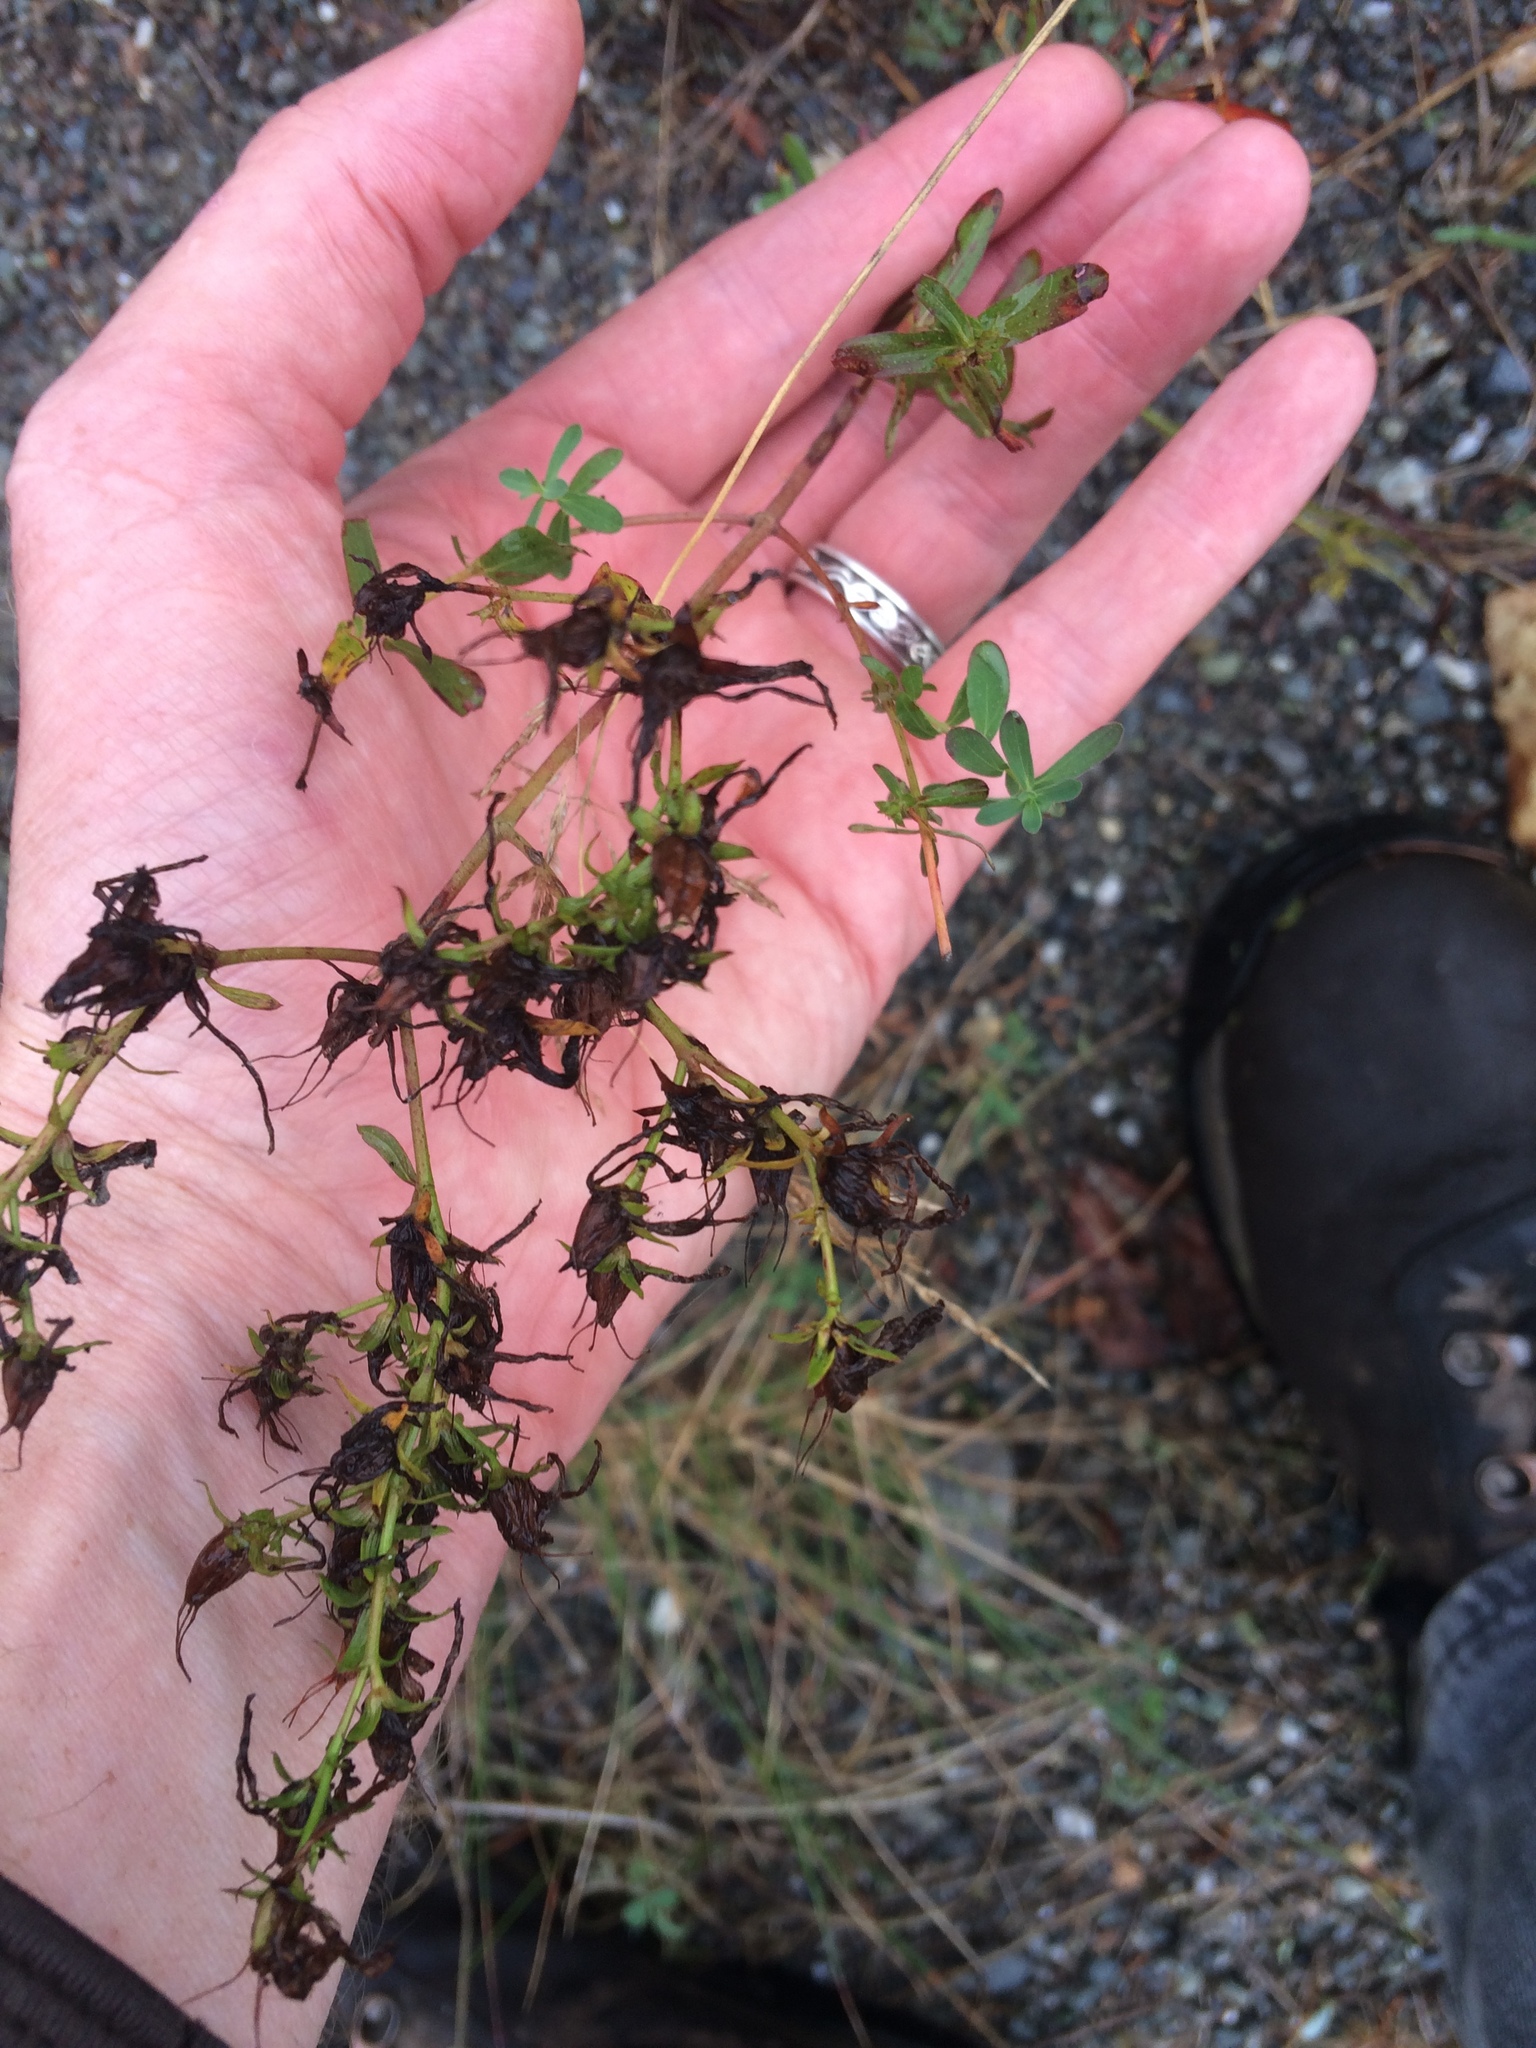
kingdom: Plantae
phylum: Tracheophyta
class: Magnoliopsida
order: Malpighiales
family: Hypericaceae
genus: Hypericum
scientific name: Hypericum perforatum
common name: Common st. johnswort
